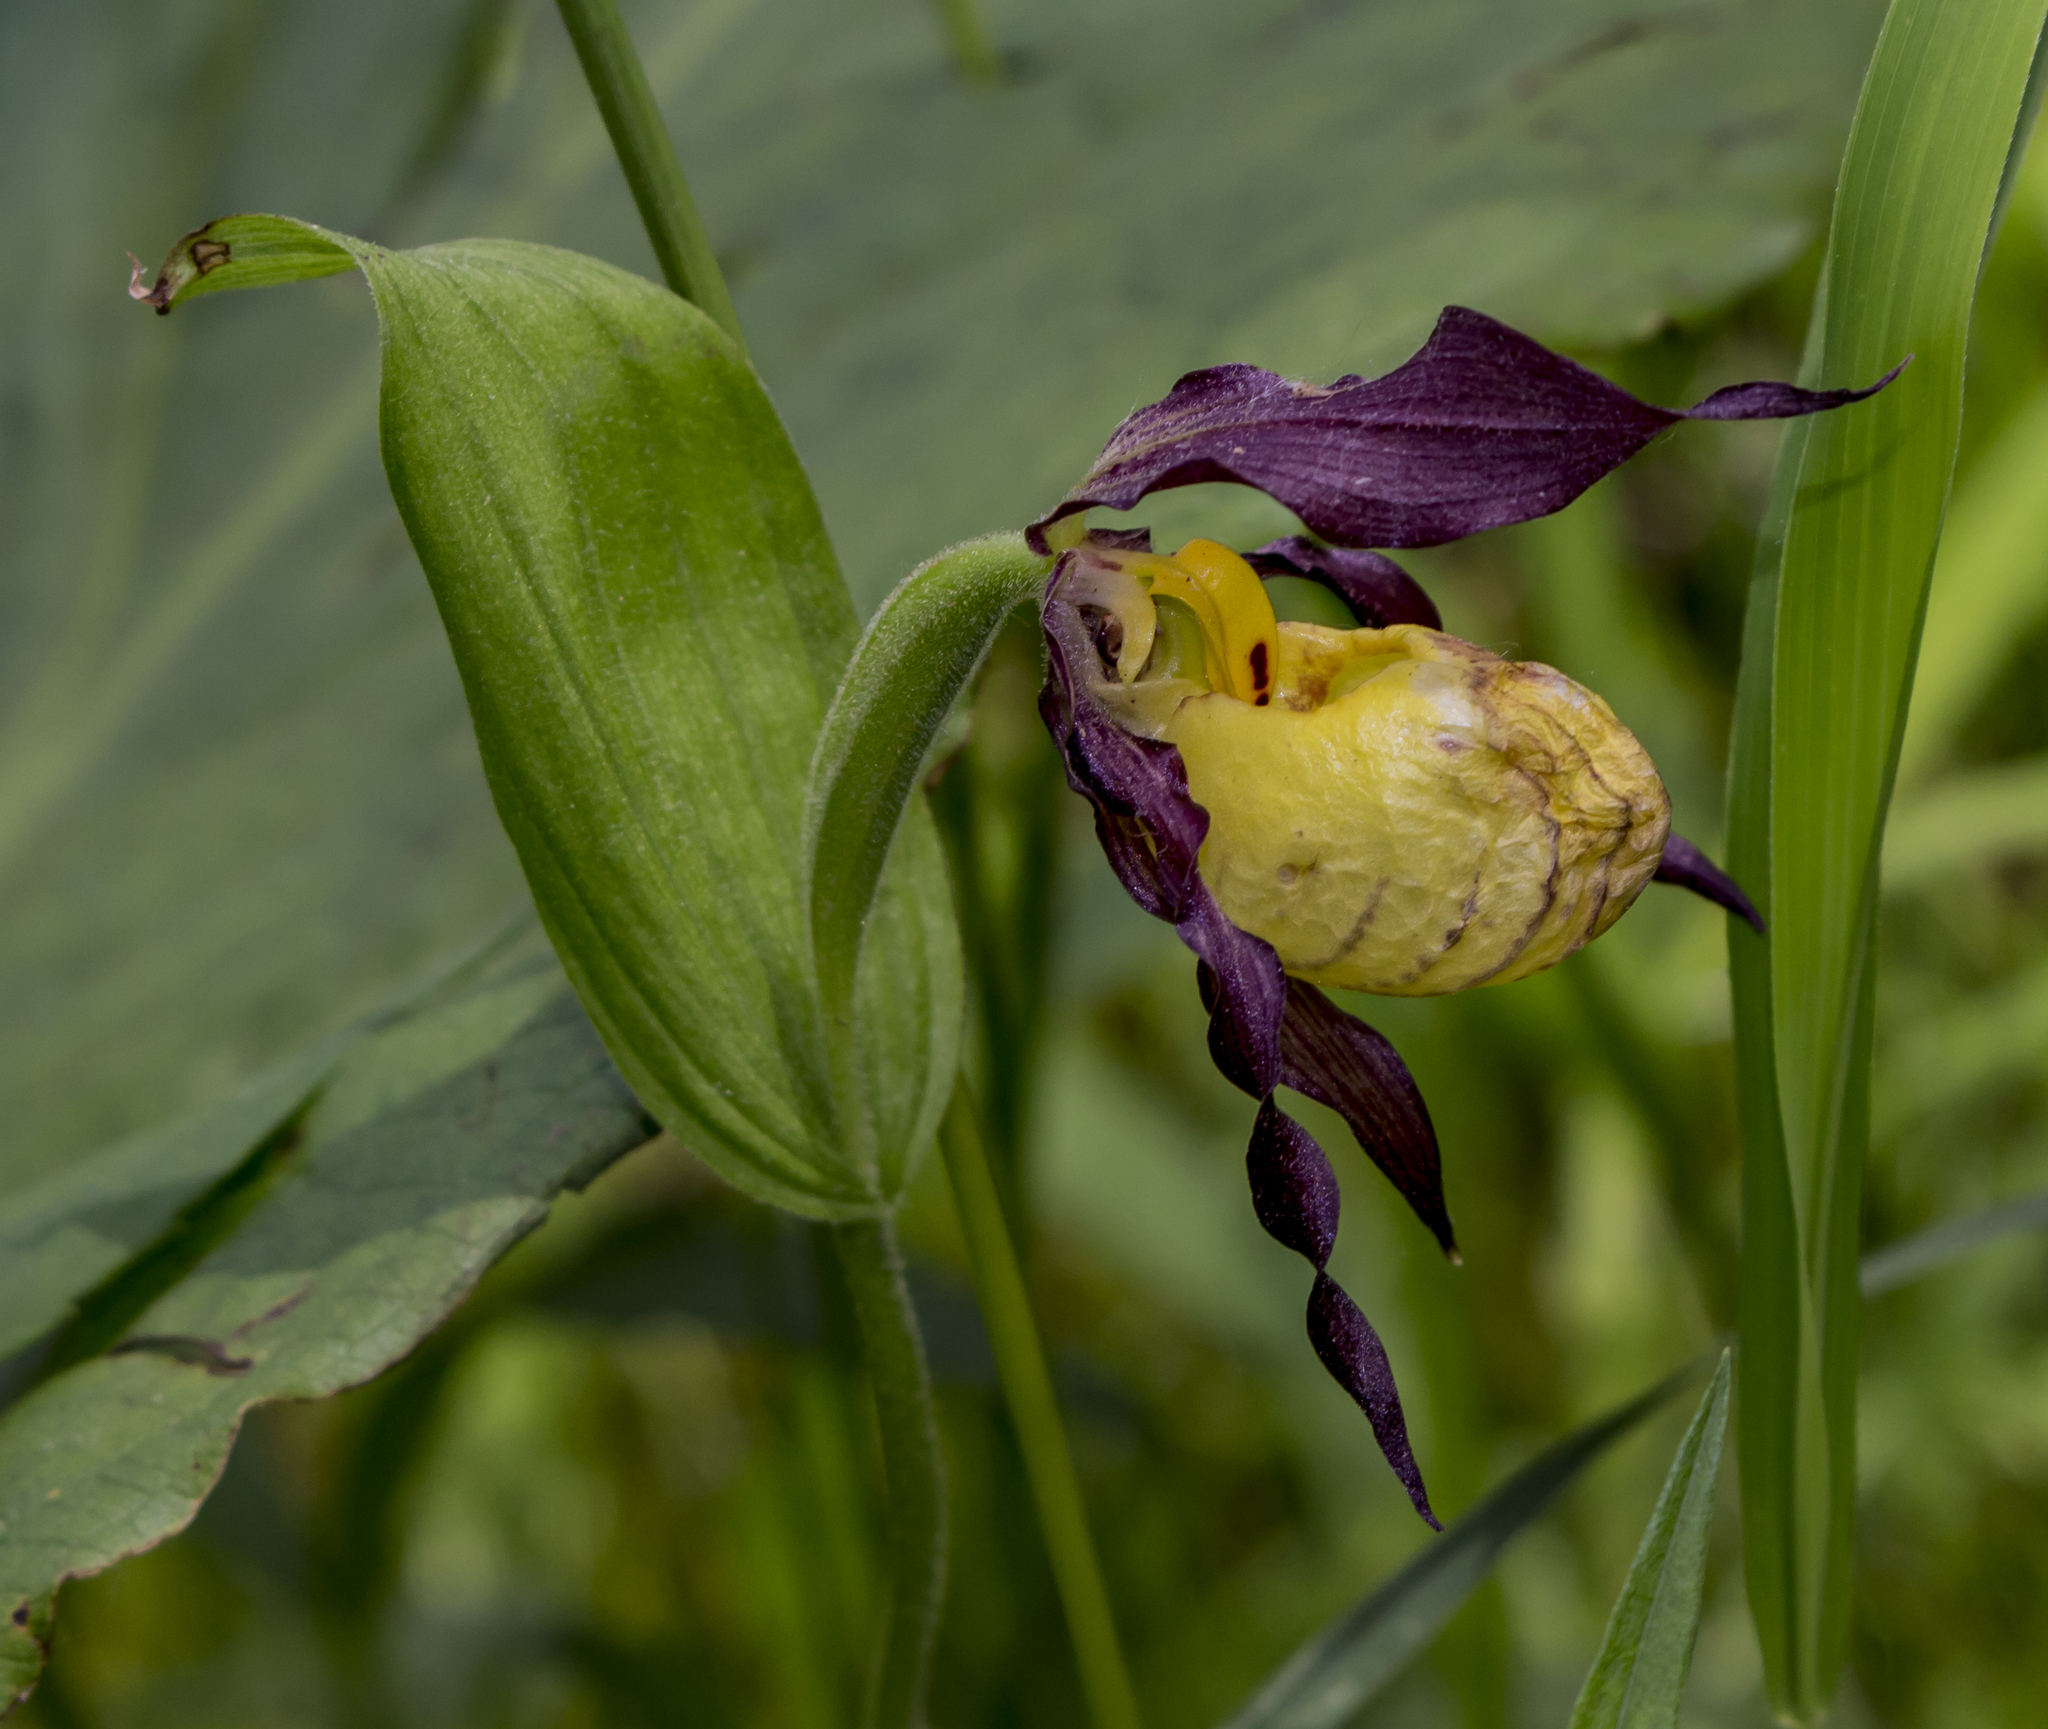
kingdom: Plantae
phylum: Tracheophyta
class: Liliopsida
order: Asparagales
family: Orchidaceae
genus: Cypripedium
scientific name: Cypripedium parviflorum
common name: American yellow lady's-slipper
